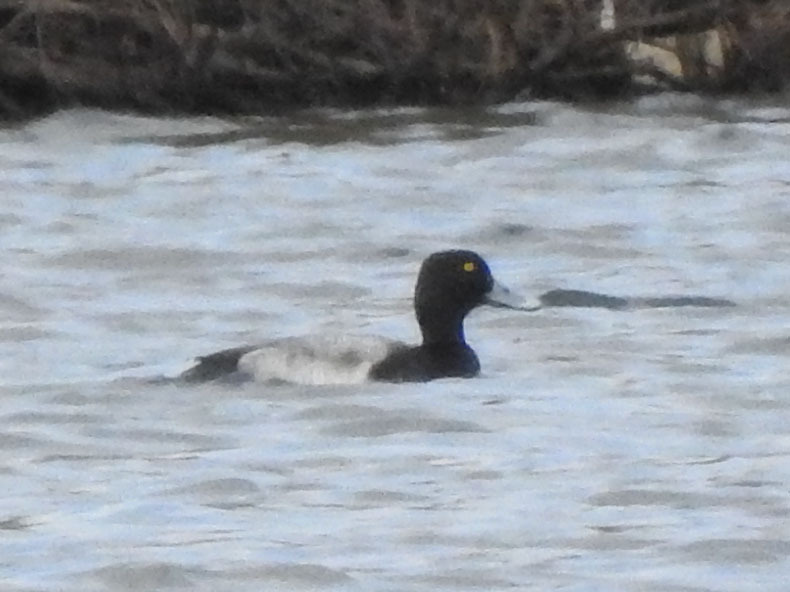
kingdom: Animalia
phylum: Chordata
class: Aves
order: Anseriformes
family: Anatidae
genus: Aythya
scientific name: Aythya affinis
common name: Lesser scaup
